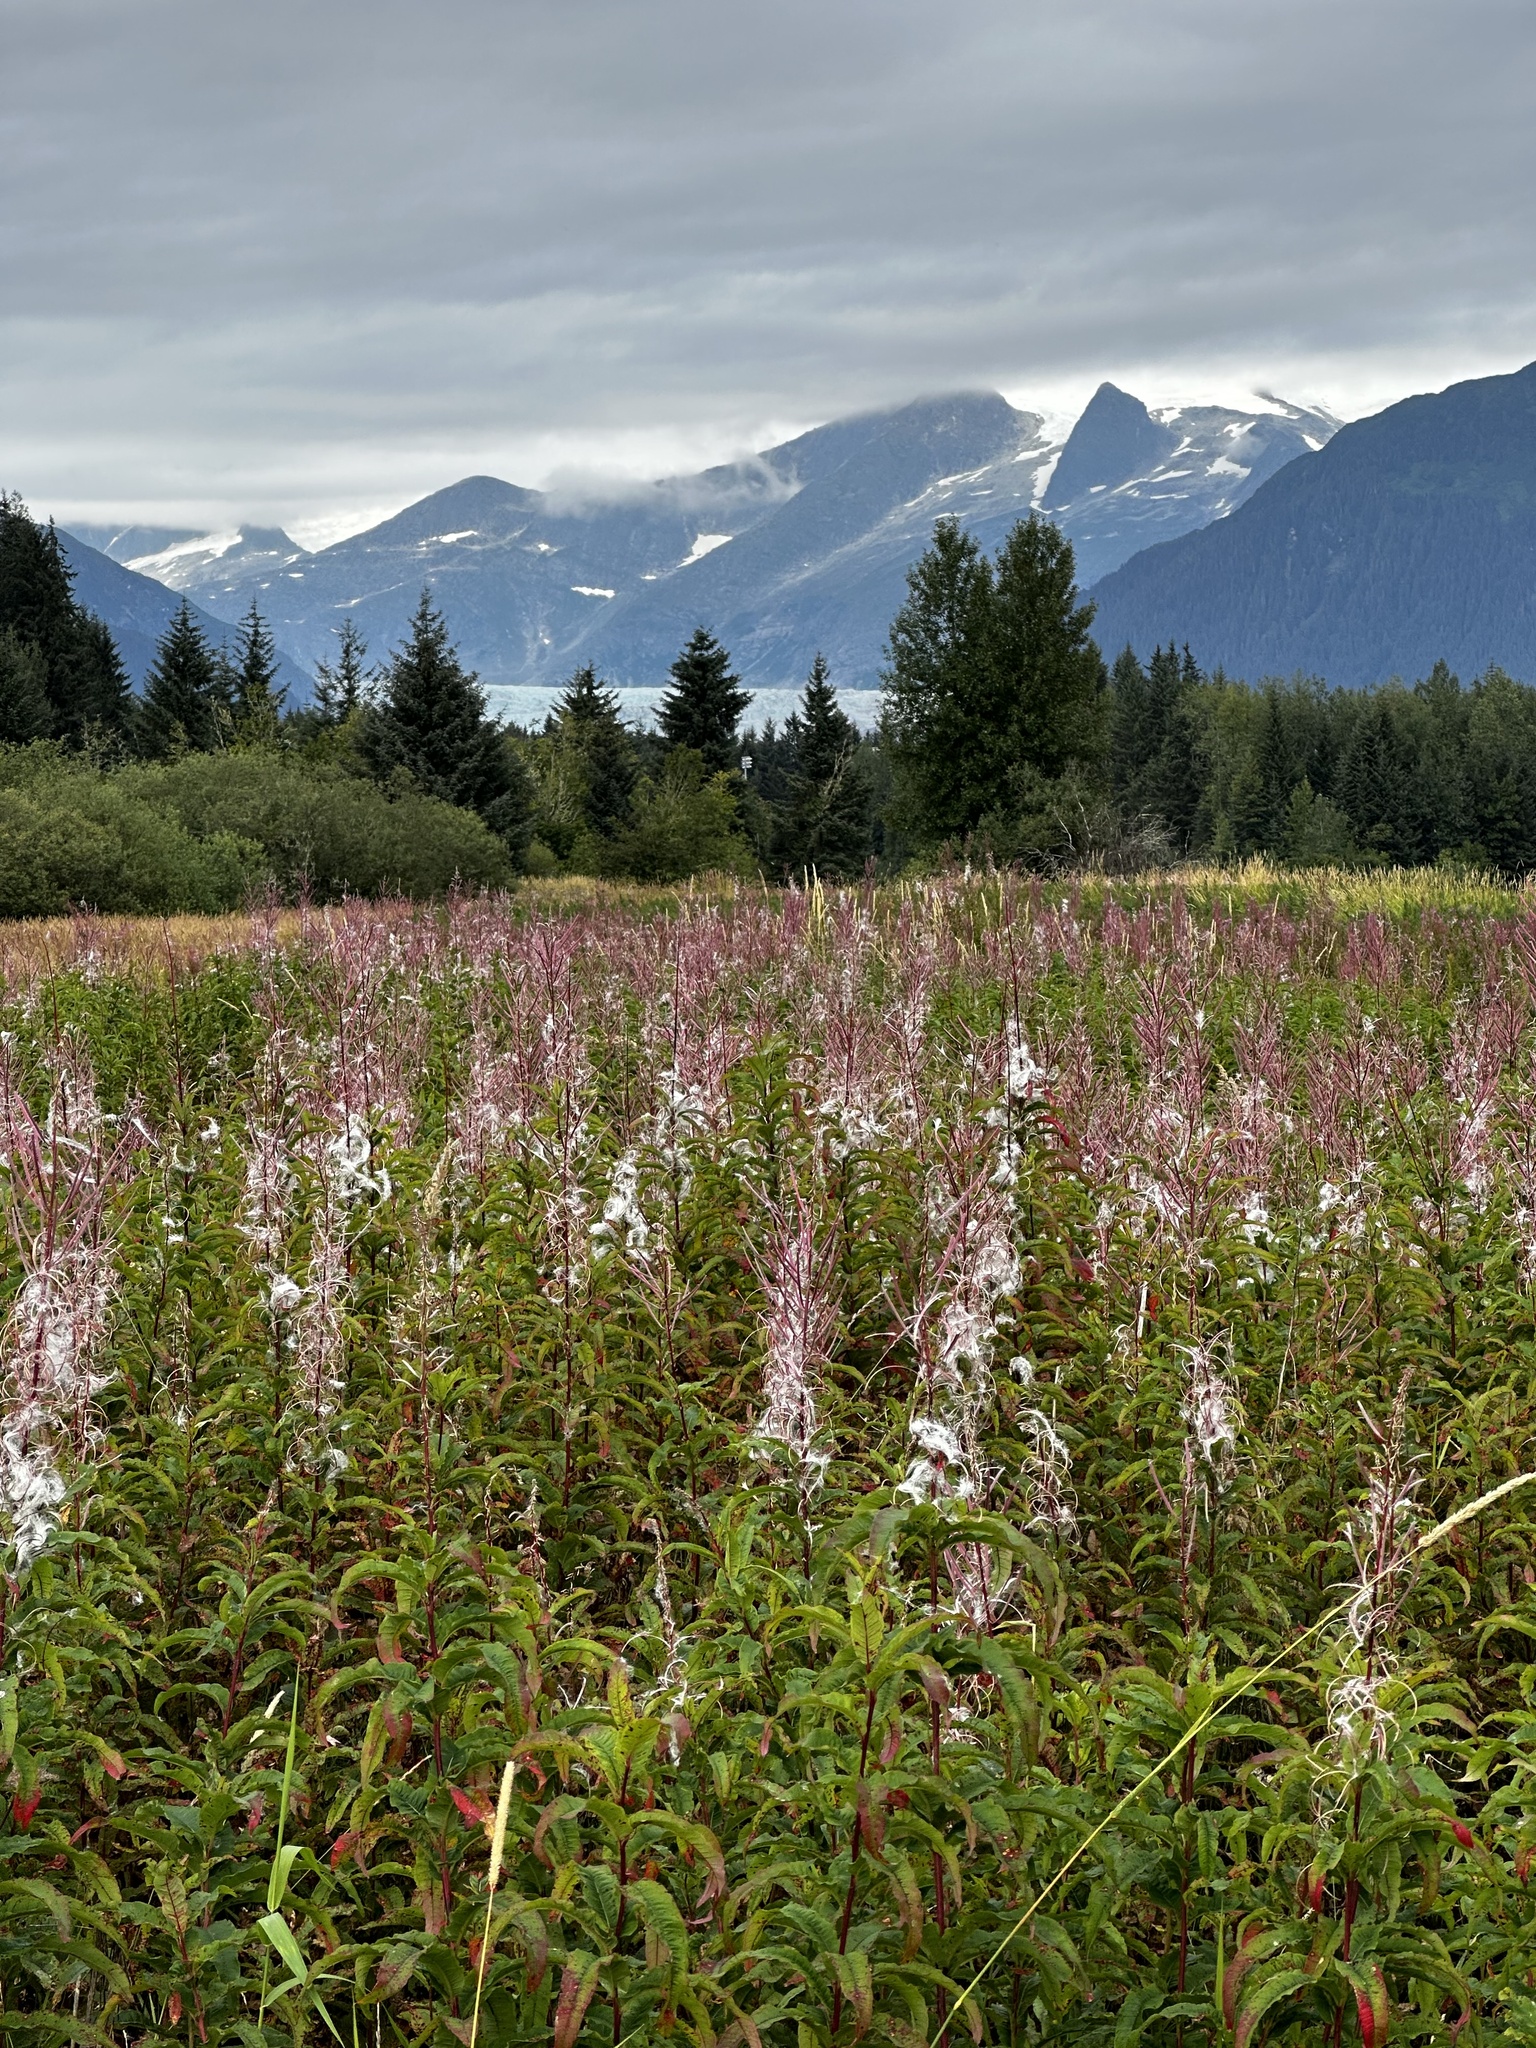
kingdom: Plantae
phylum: Tracheophyta
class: Magnoliopsida
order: Myrtales
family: Onagraceae
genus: Chamaenerion
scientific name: Chamaenerion angustifolium
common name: Fireweed
